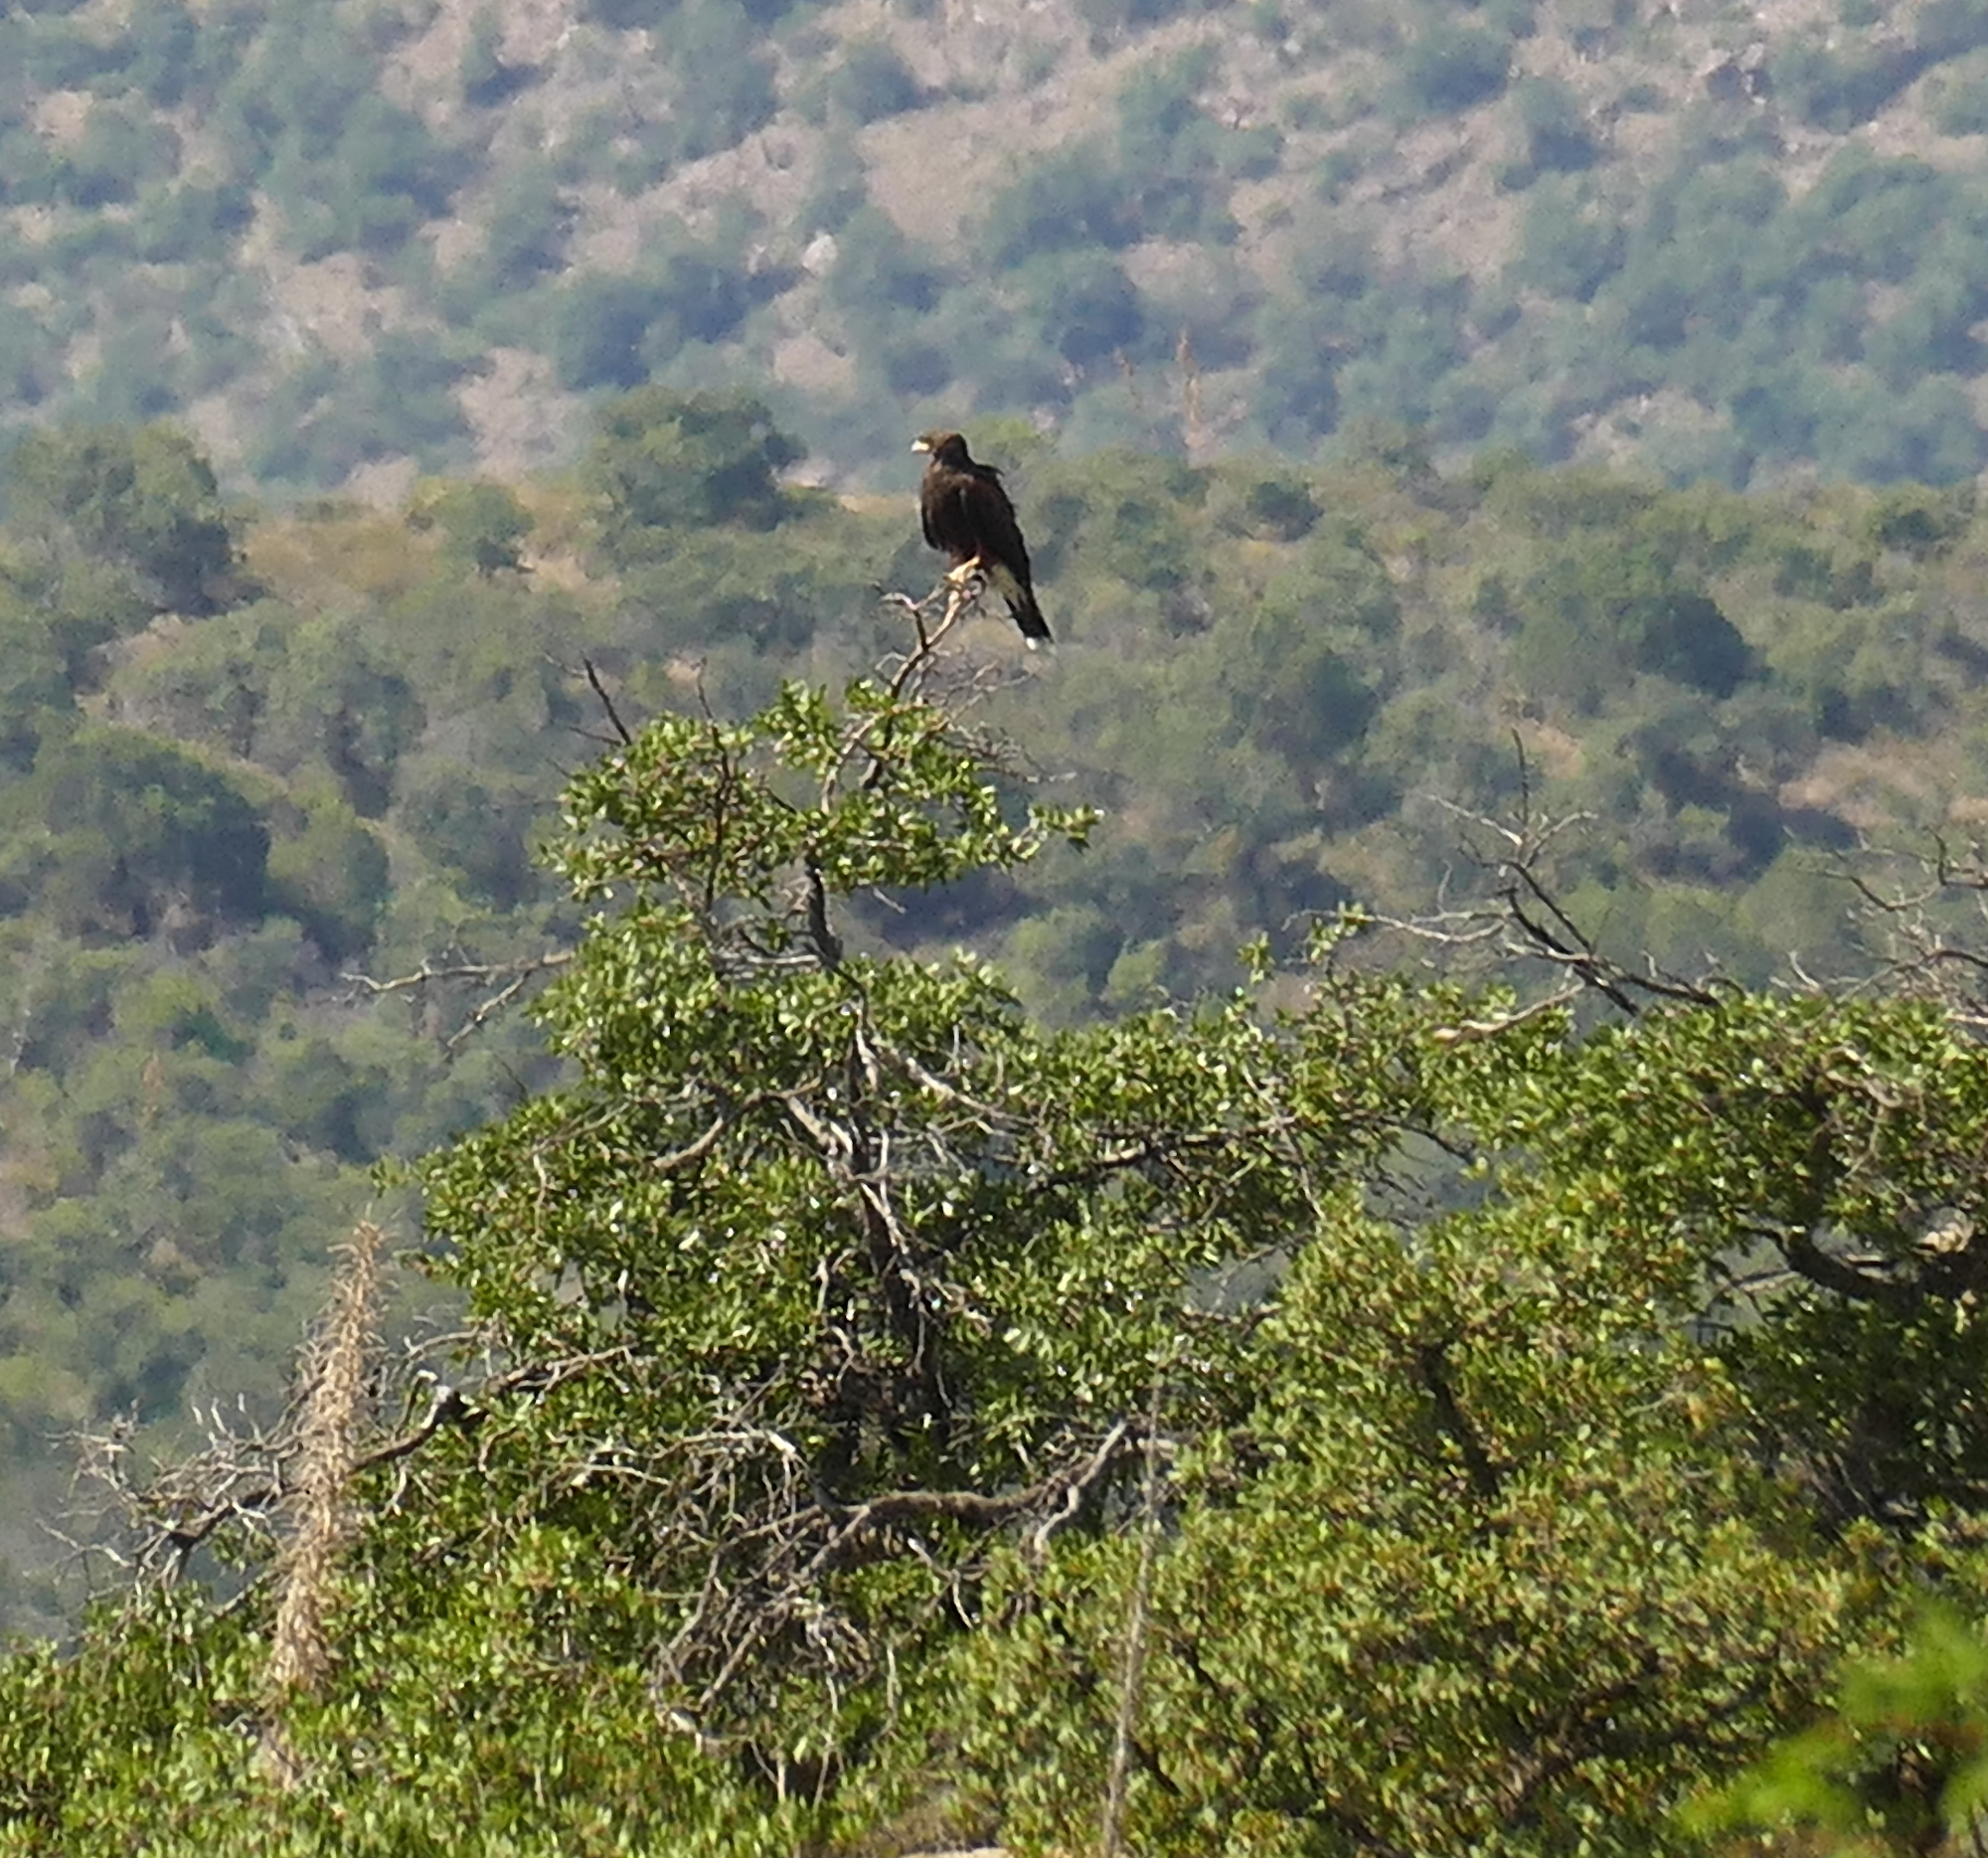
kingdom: Animalia
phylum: Chordata
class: Aves
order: Accipitriformes
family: Accipitridae
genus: Parabuteo
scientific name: Parabuteo unicinctus
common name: Harris's hawk
